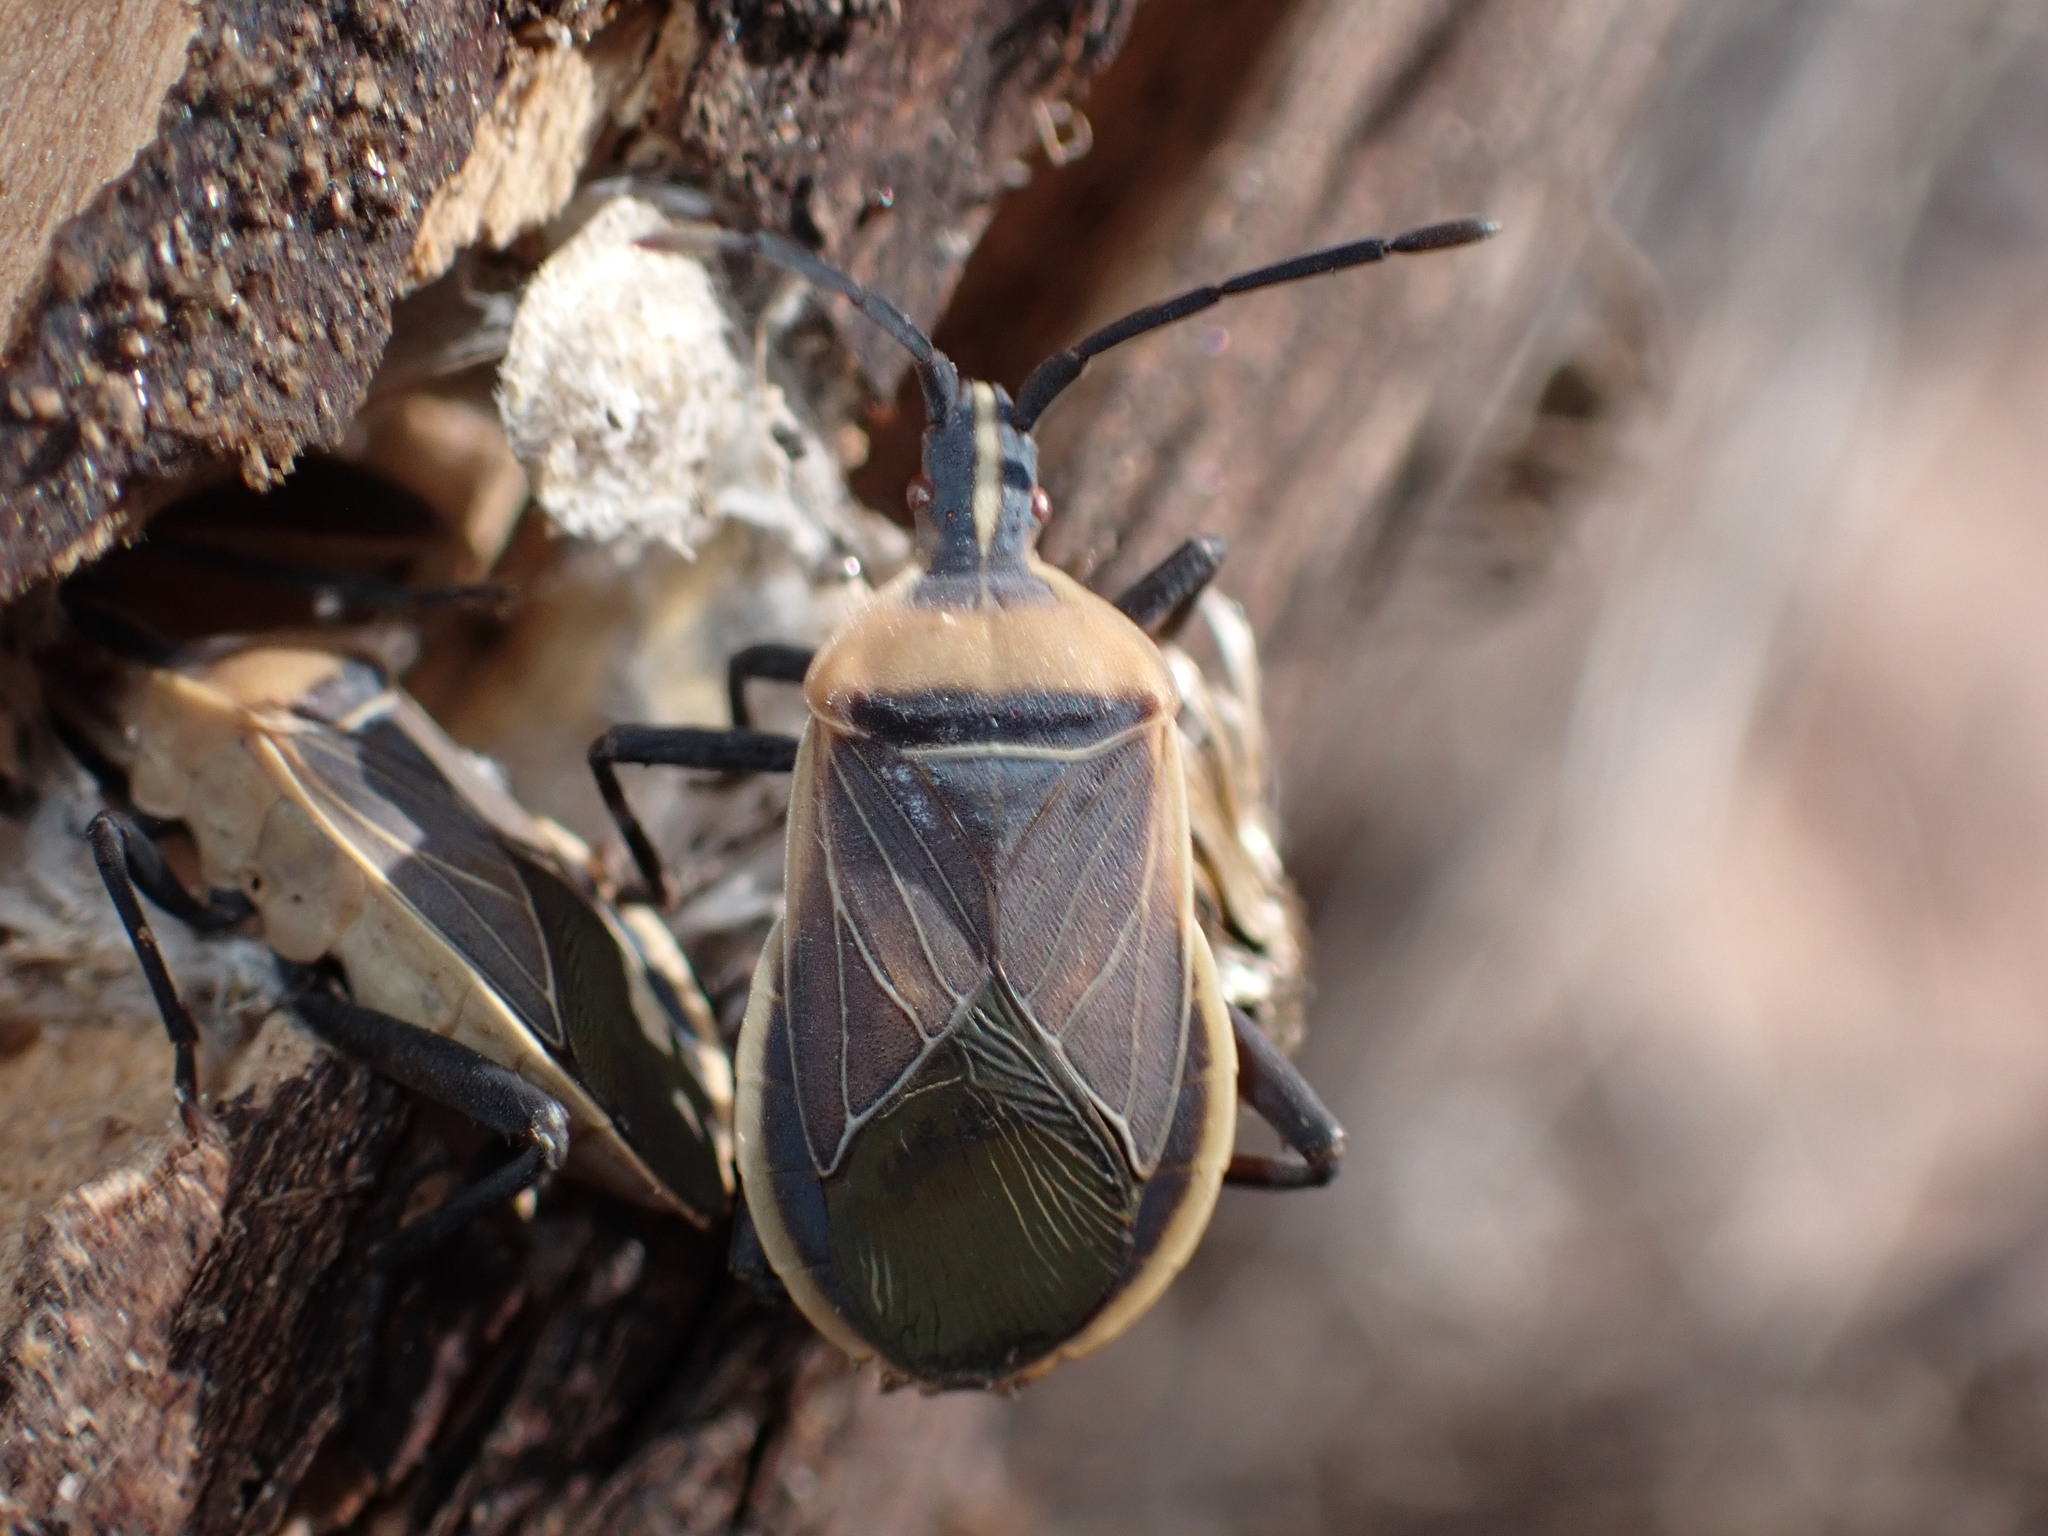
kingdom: Animalia
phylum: Arthropoda
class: Insecta
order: Hemiptera
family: Coreidae
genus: Chelinidea
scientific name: Chelinidea vittiger
